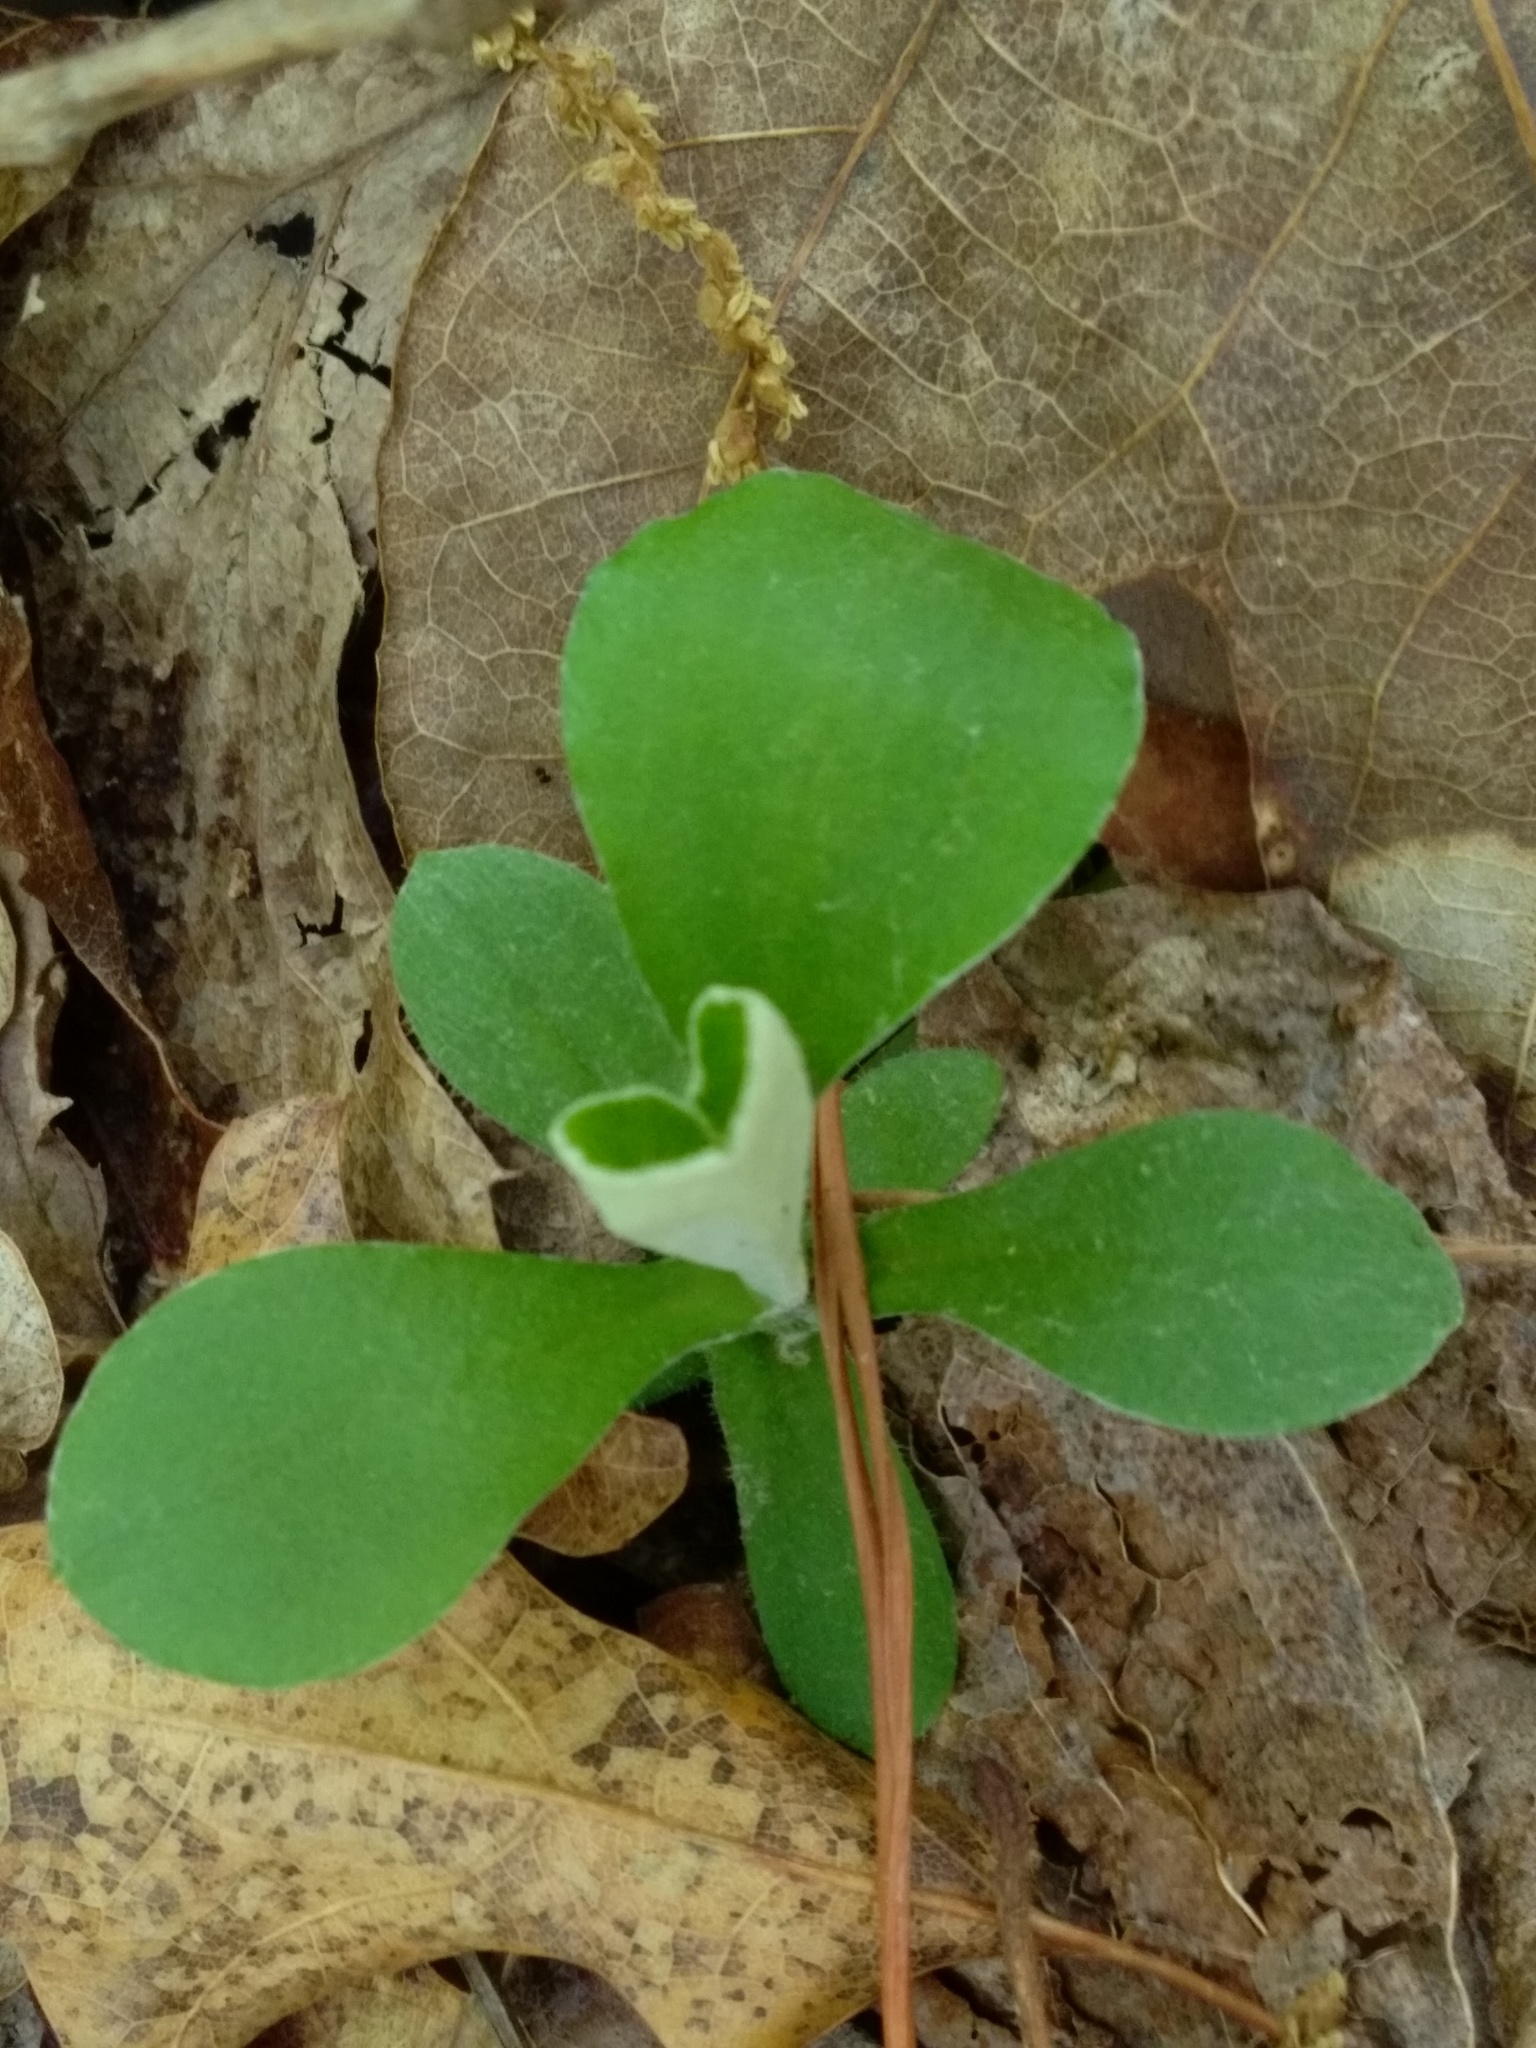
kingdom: Plantae
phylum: Tracheophyta
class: Magnoliopsida
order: Asterales
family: Asteraceae
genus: Antennaria
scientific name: Antennaria parlinii
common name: Parlin's pussytoes
